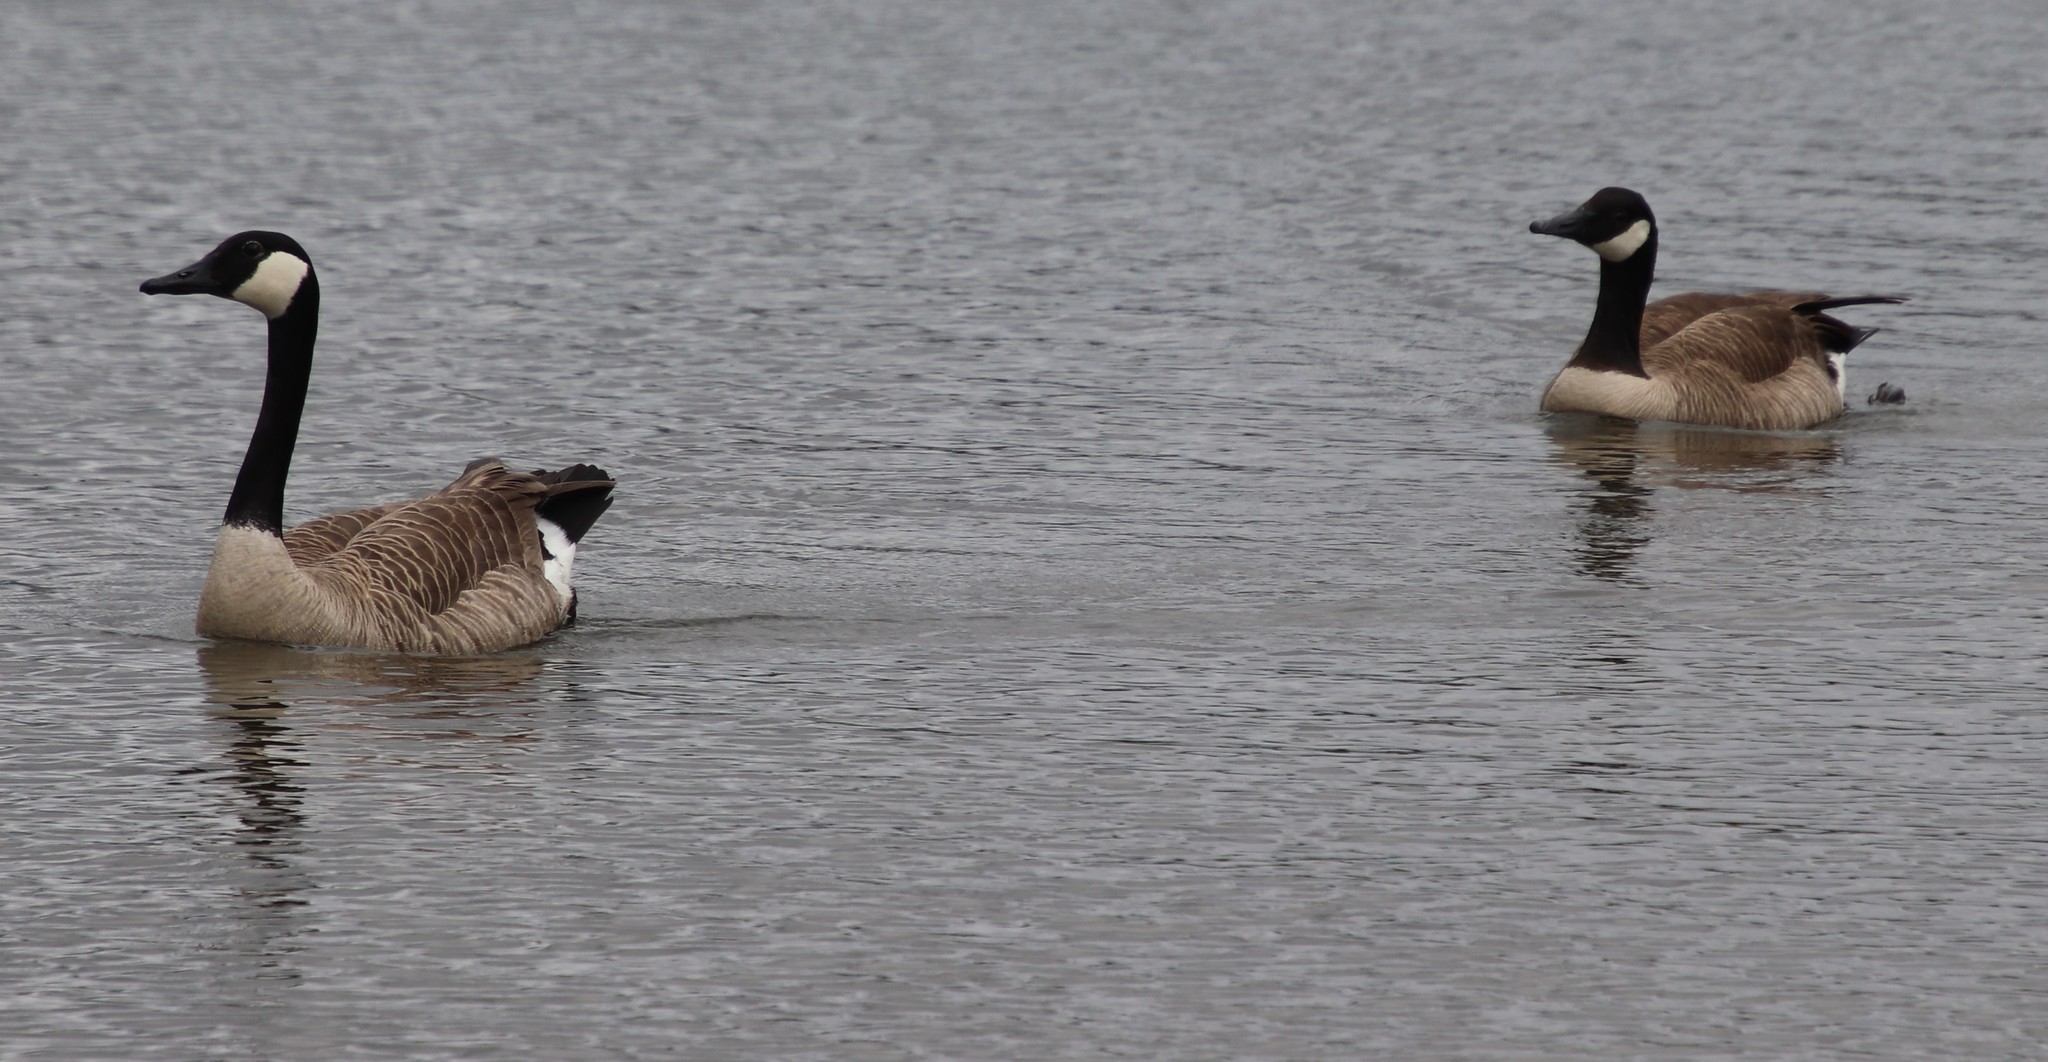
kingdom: Animalia
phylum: Chordata
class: Aves
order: Anseriformes
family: Anatidae
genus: Branta
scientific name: Branta canadensis
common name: Canada goose
